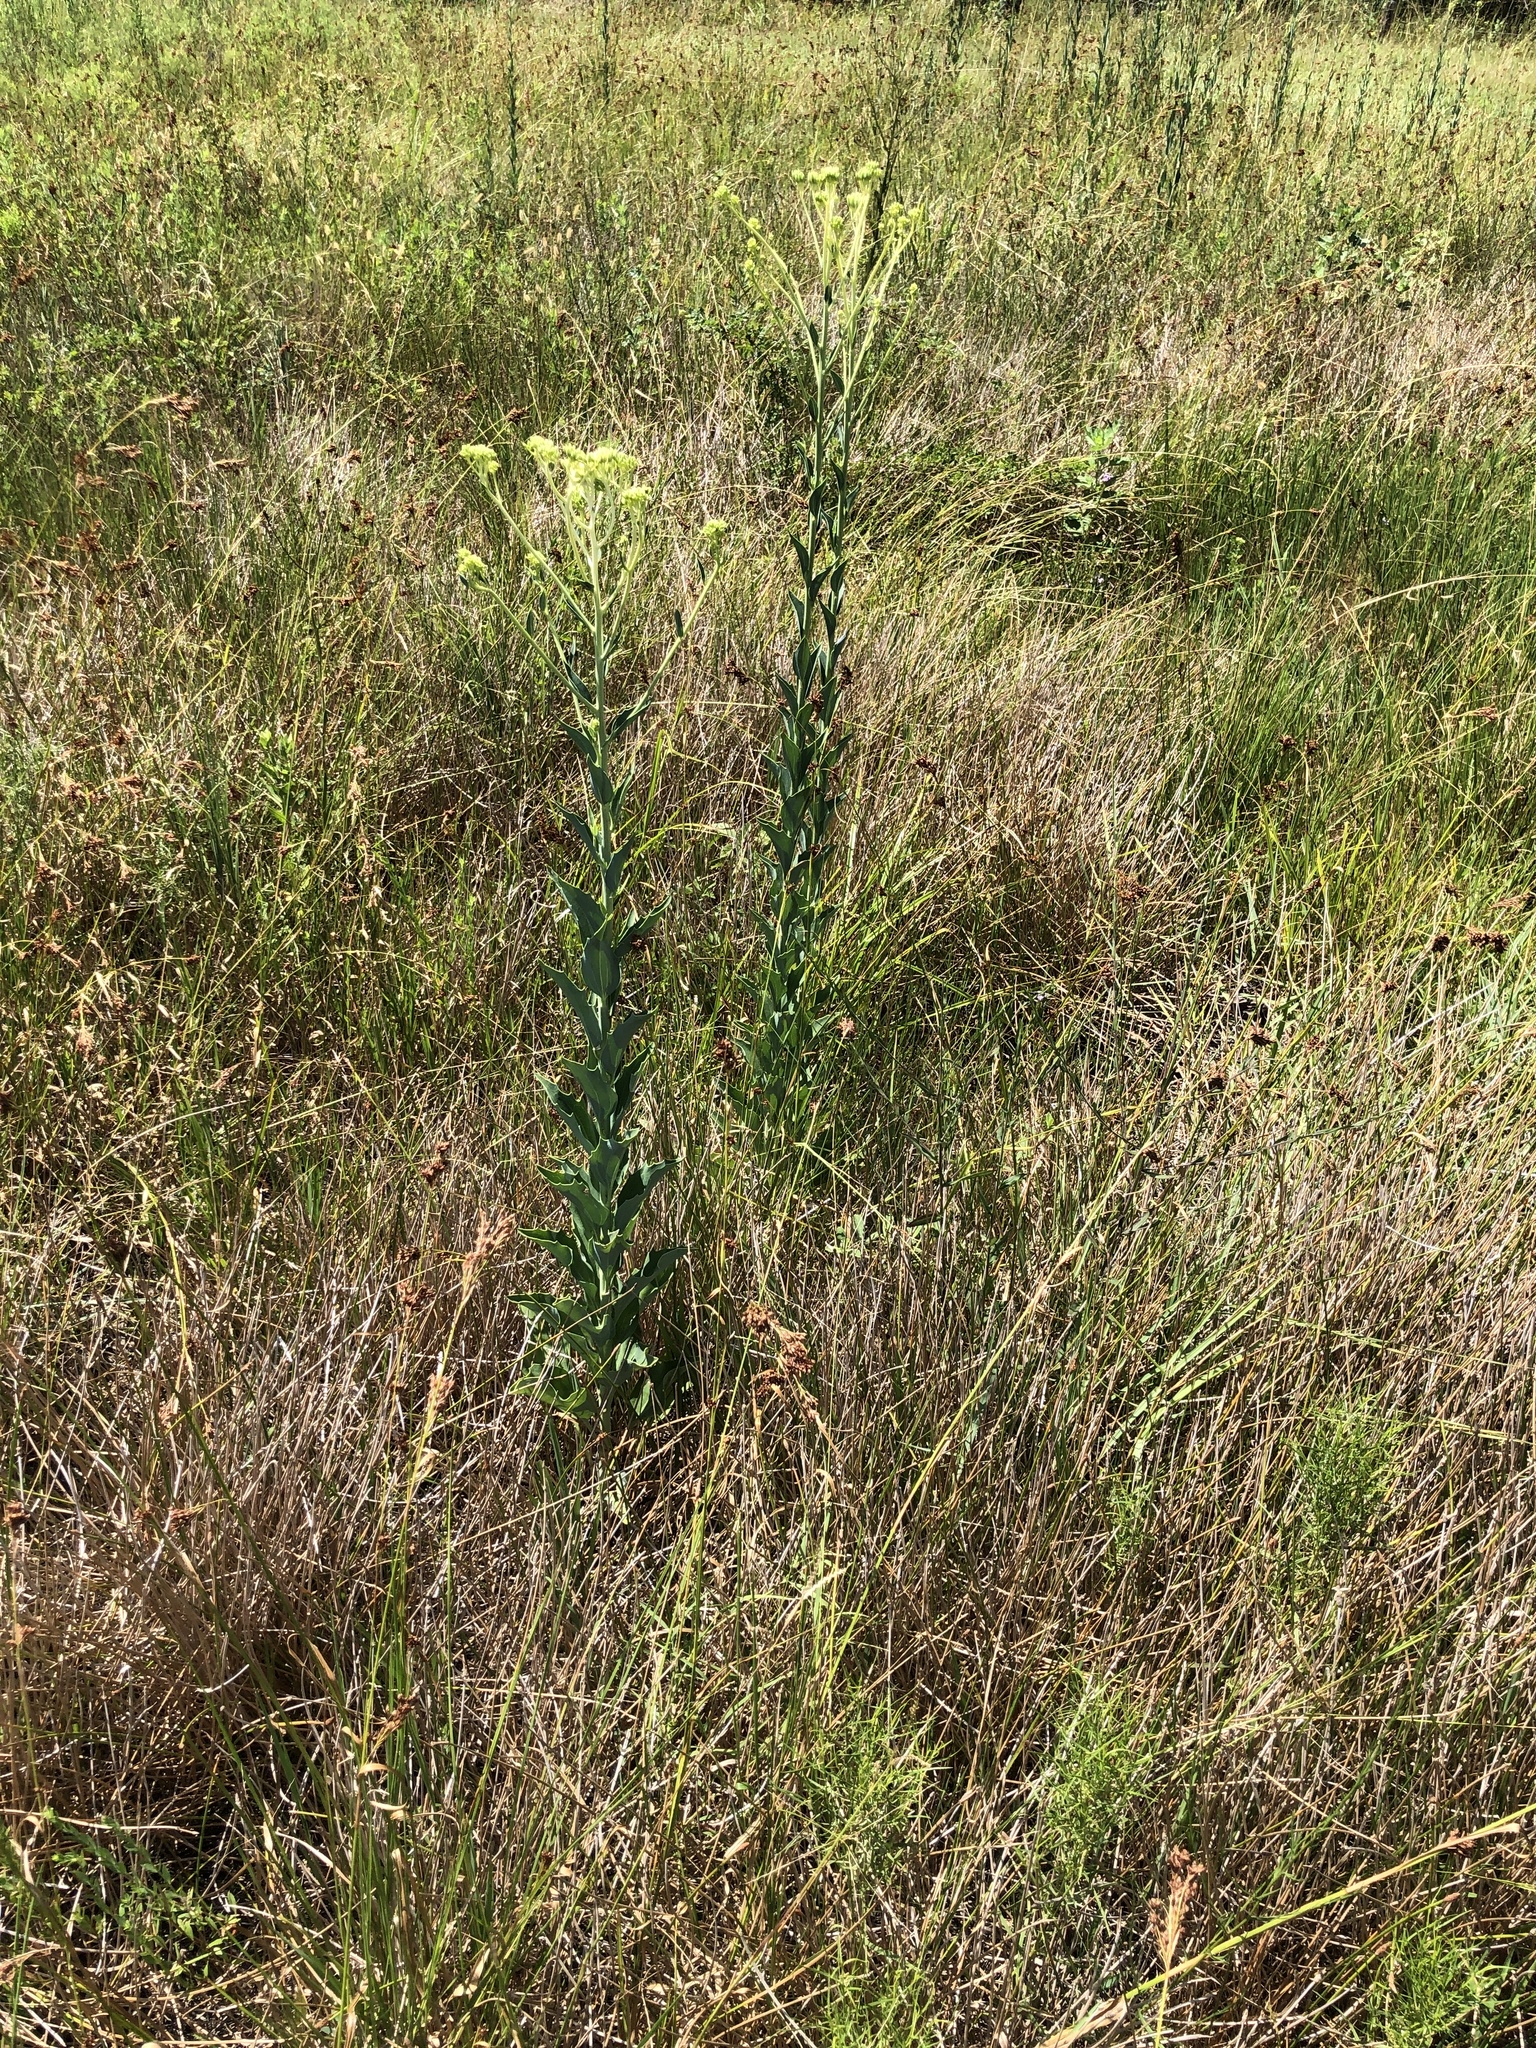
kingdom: Plantae
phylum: Tracheophyta
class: Magnoliopsida
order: Asterales
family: Asteraceae
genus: Arnoglossum
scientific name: Arnoglossum ovatum
